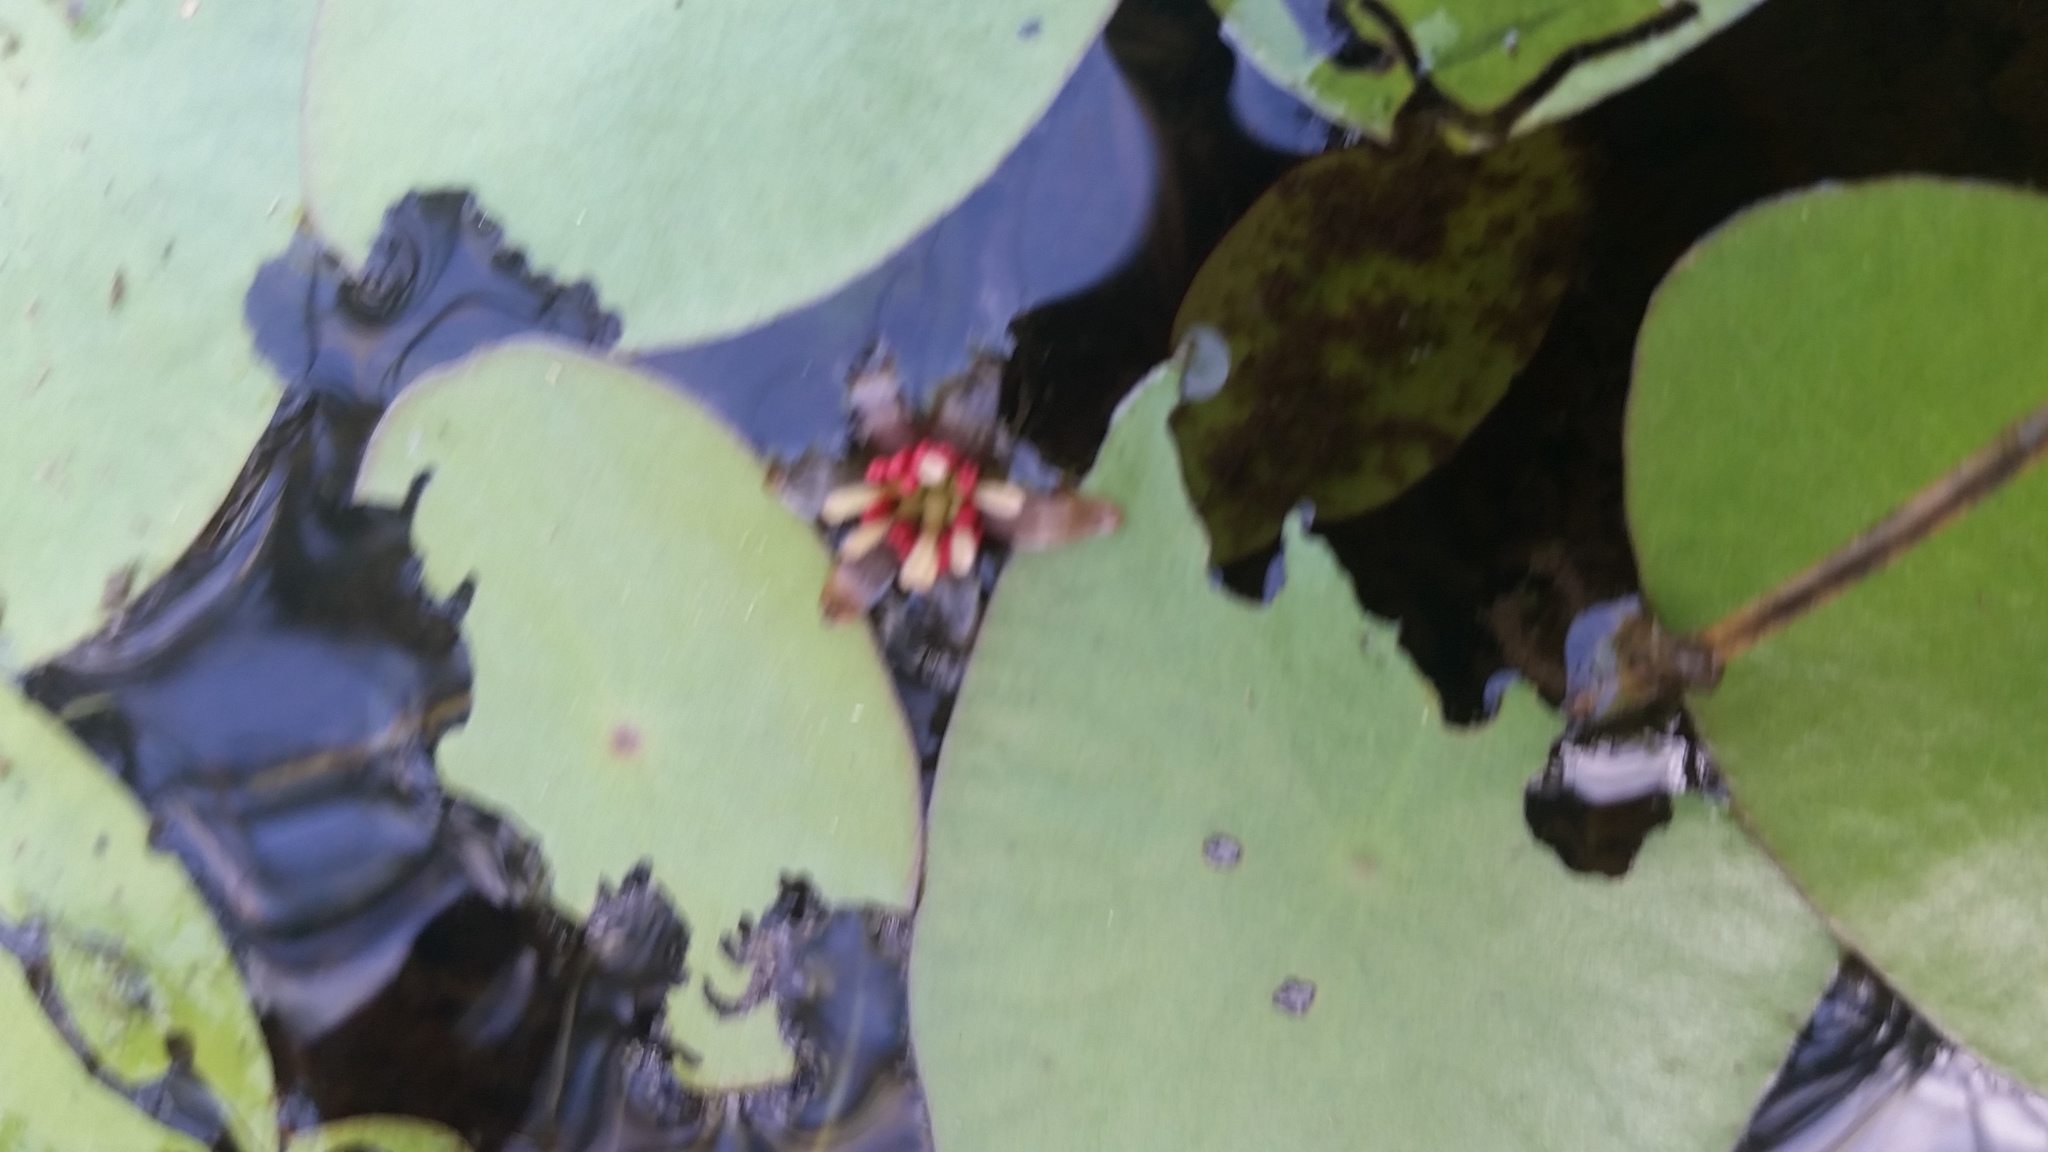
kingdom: Plantae
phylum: Tracheophyta
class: Magnoliopsida
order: Nymphaeales
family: Cabombaceae
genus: Brasenia
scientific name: Brasenia schreberi
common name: Water-shield
